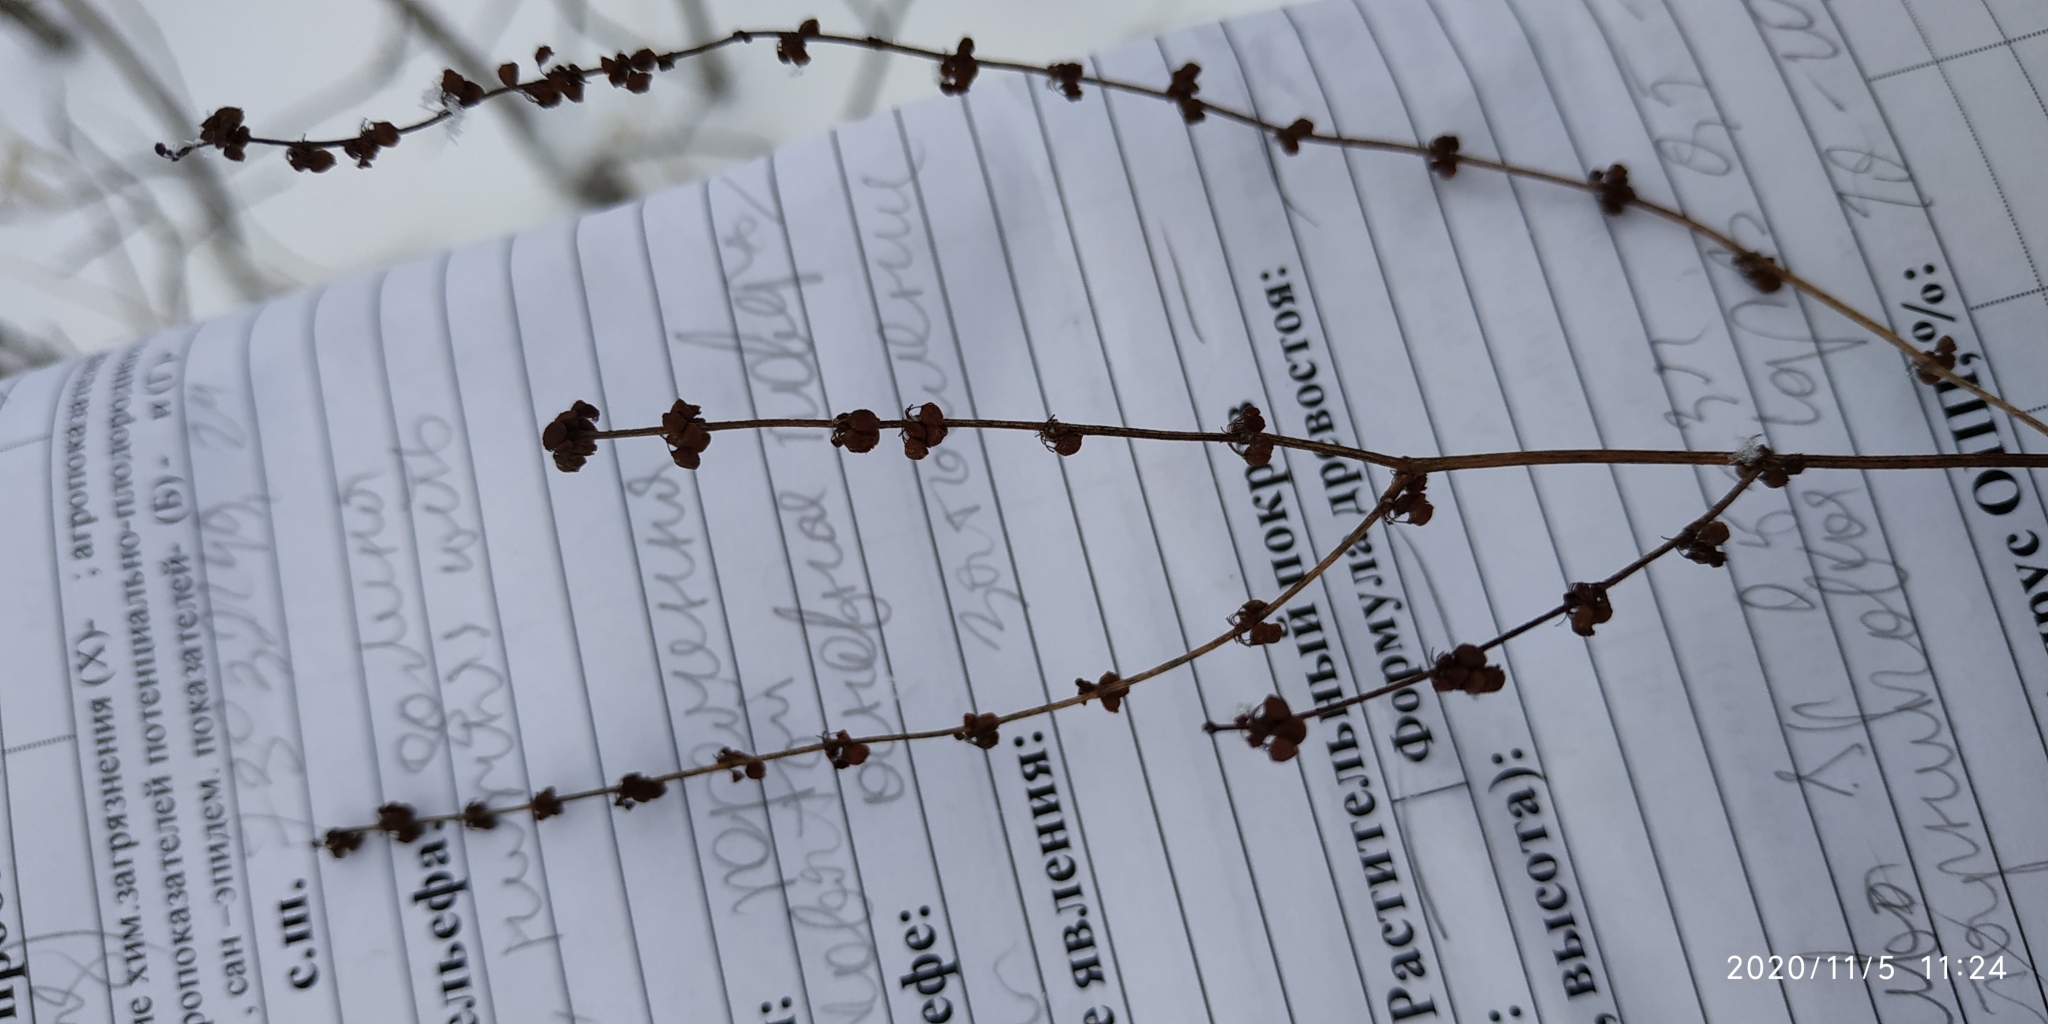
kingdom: Plantae
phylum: Tracheophyta
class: Magnoliopsida
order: Caryophyllales
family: Polygonaceae
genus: Rumex
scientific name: Rumex acetosella
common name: Common sheep sorrel
